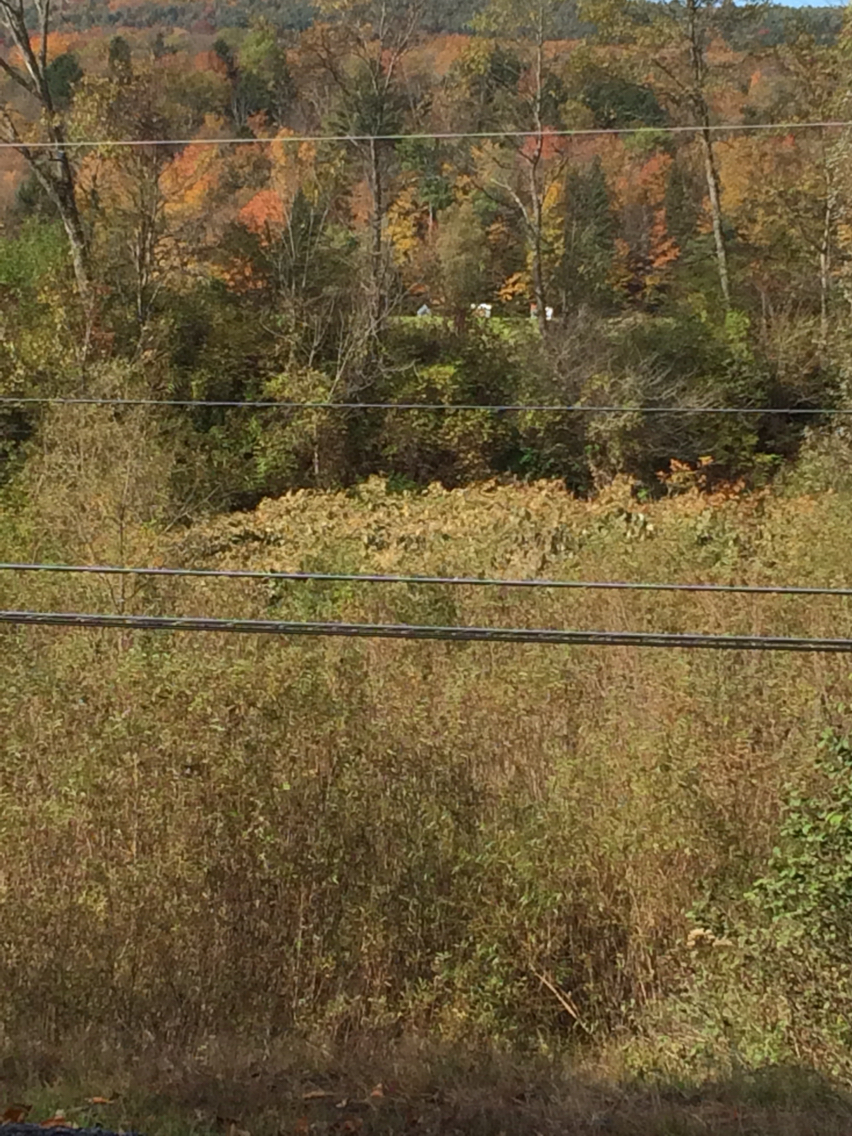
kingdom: Plantae
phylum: Tracheophyta
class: Magnoliopsida
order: Caryophyllales
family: Polygonaceae
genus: Reynoutria
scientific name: Reynoutria japonica
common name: Japanese knotweed
